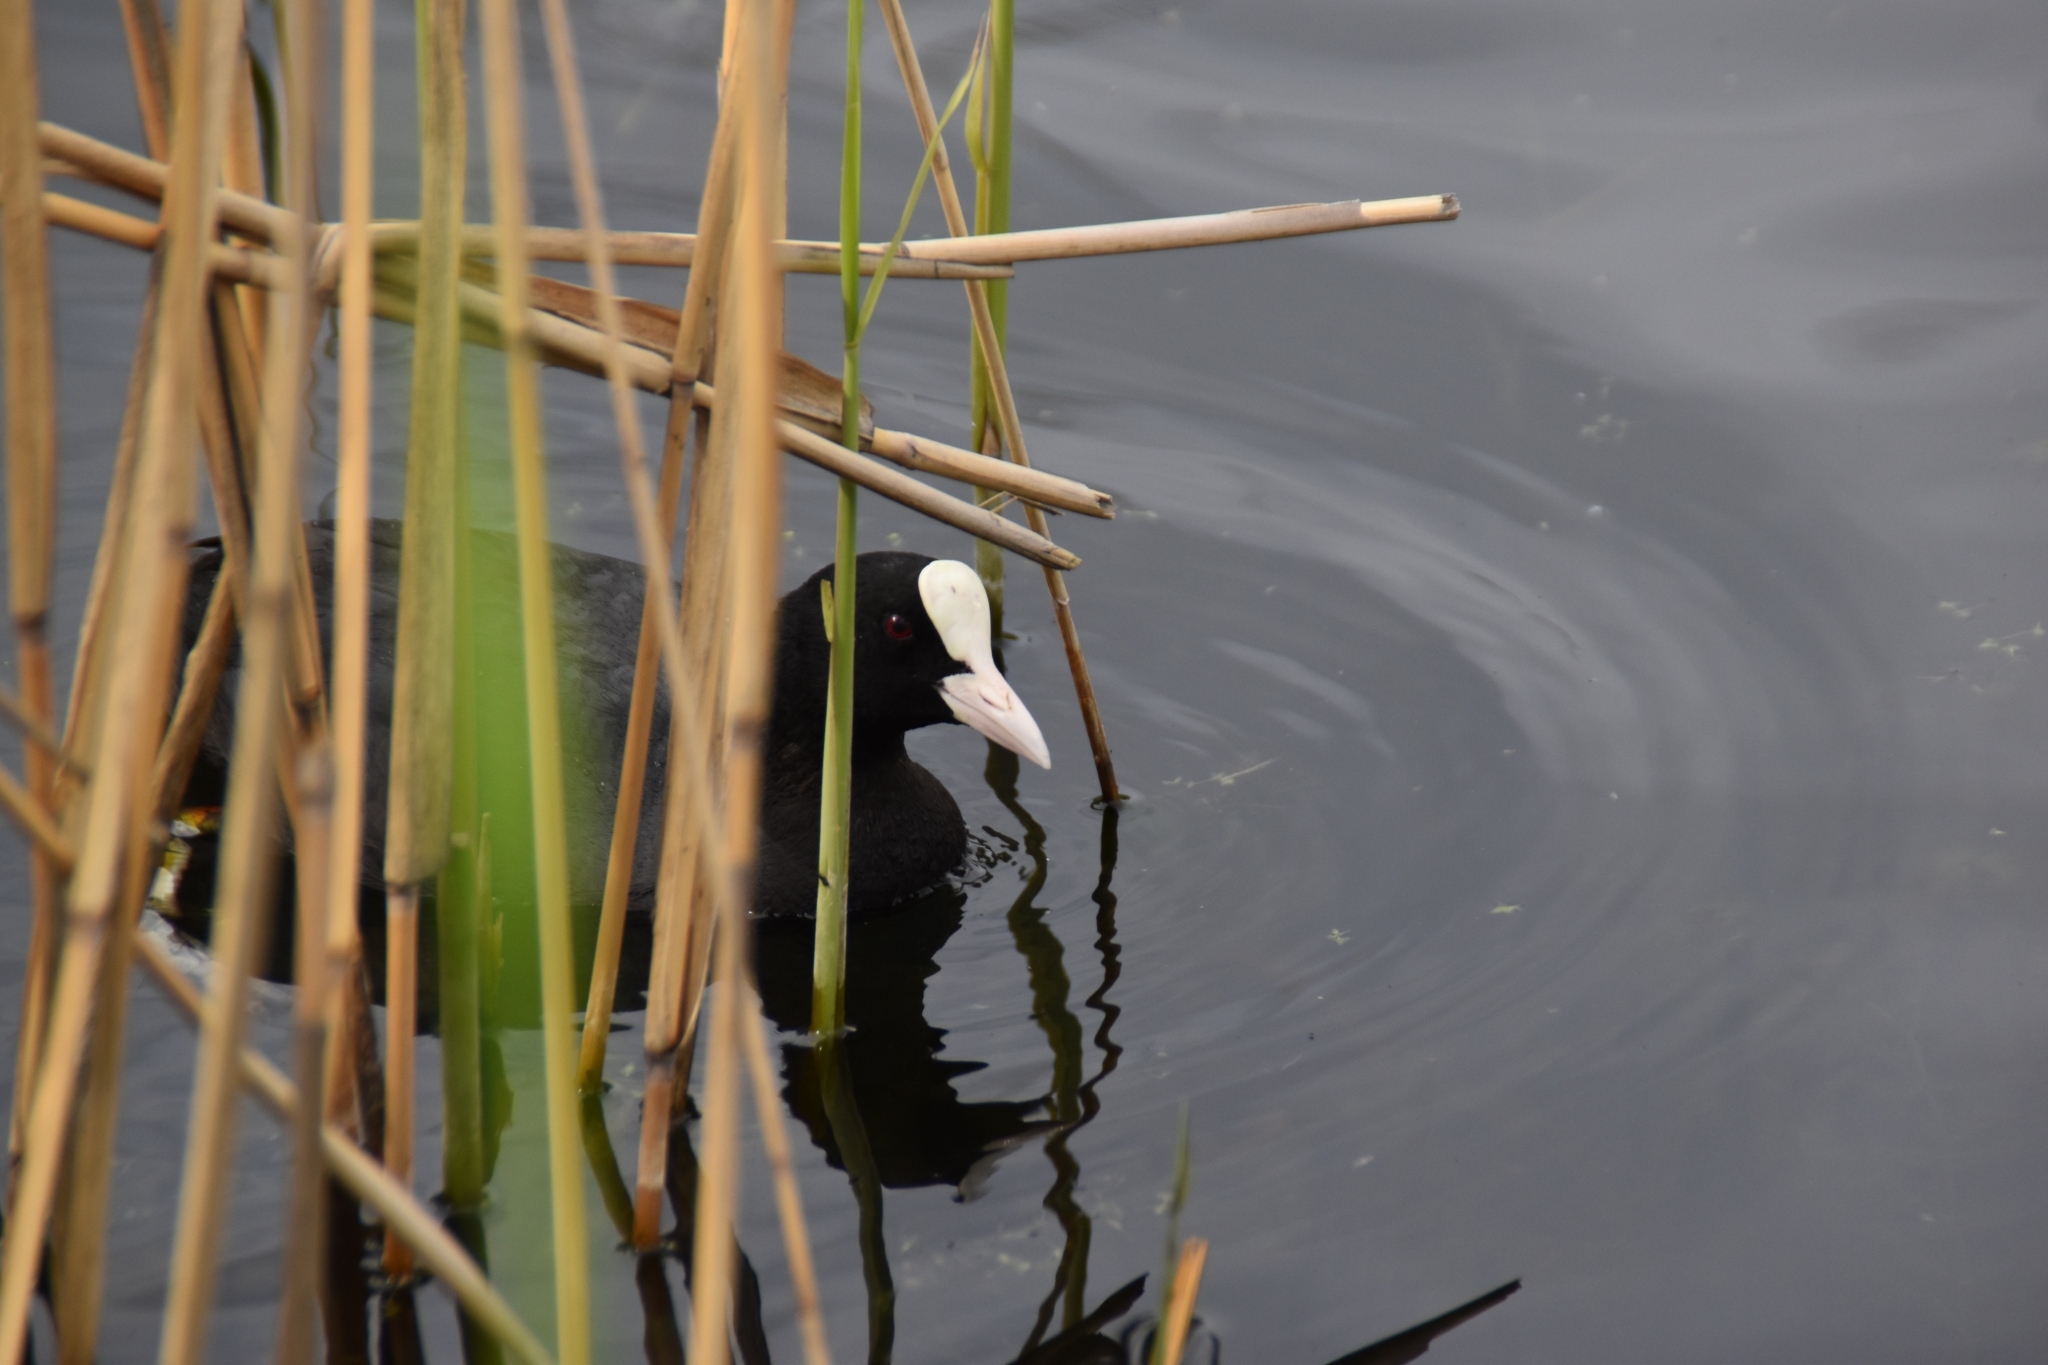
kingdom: Animalia
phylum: Chordata
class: Aves
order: Gruiformes
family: Rallidae
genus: Fulica
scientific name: Fulica atra
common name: Eurasian coot
